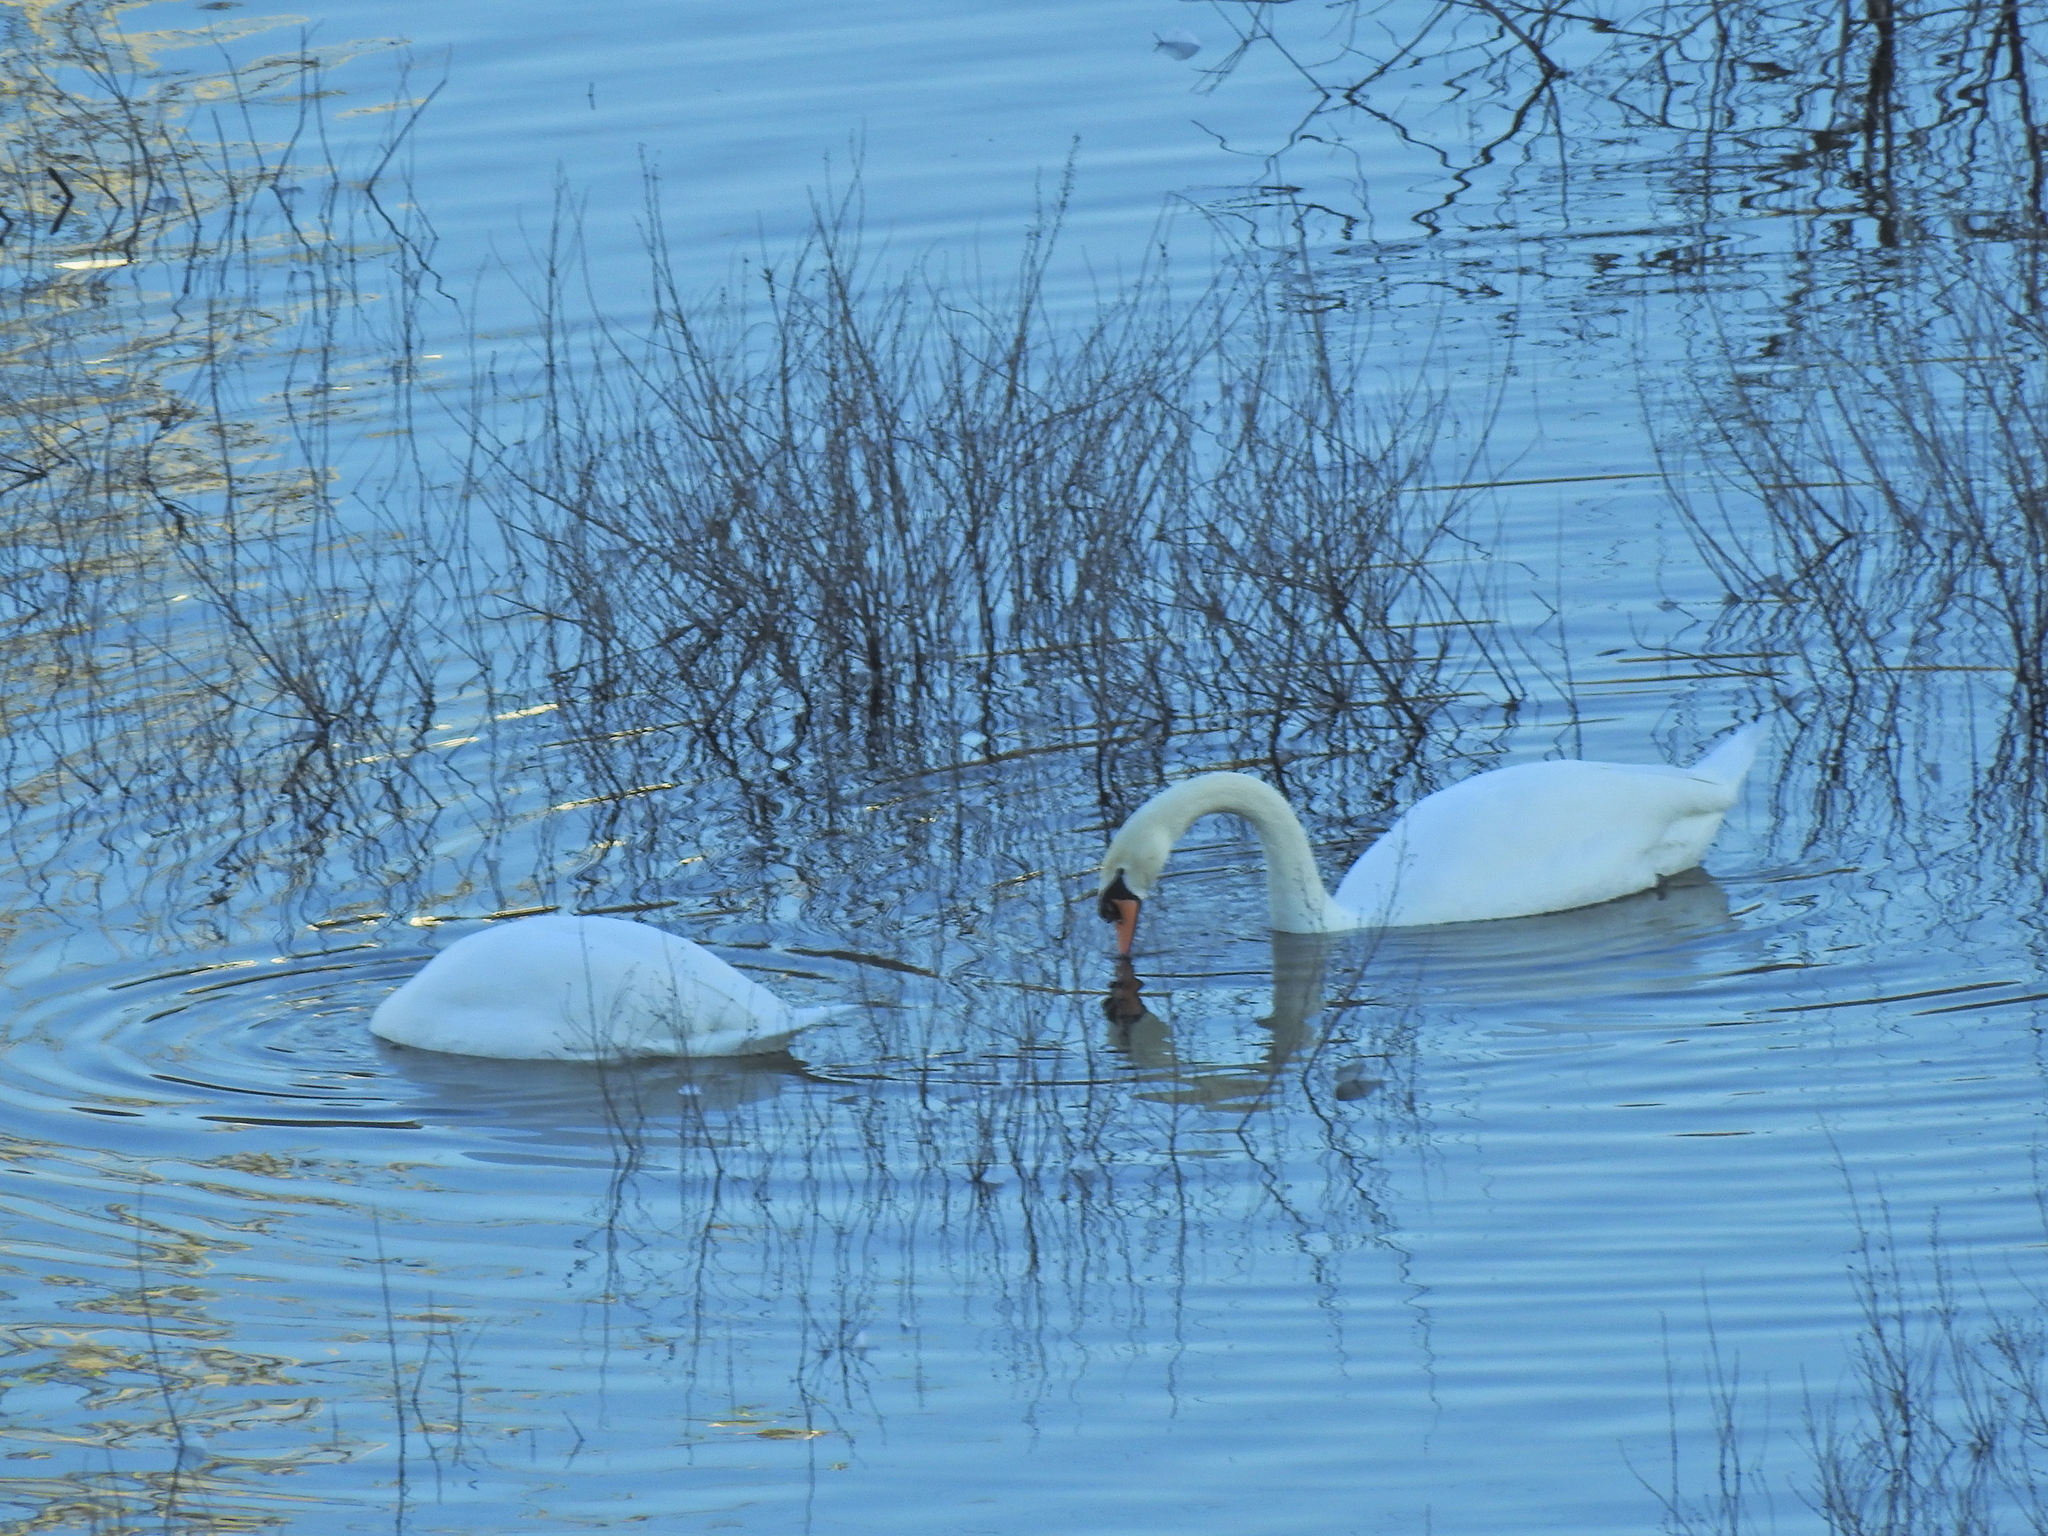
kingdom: Animalia
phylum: Chordata
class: Aves
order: Anseriformes
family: Anatidae
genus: Cygnus
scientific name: Cygnus olor
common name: Mute swan
